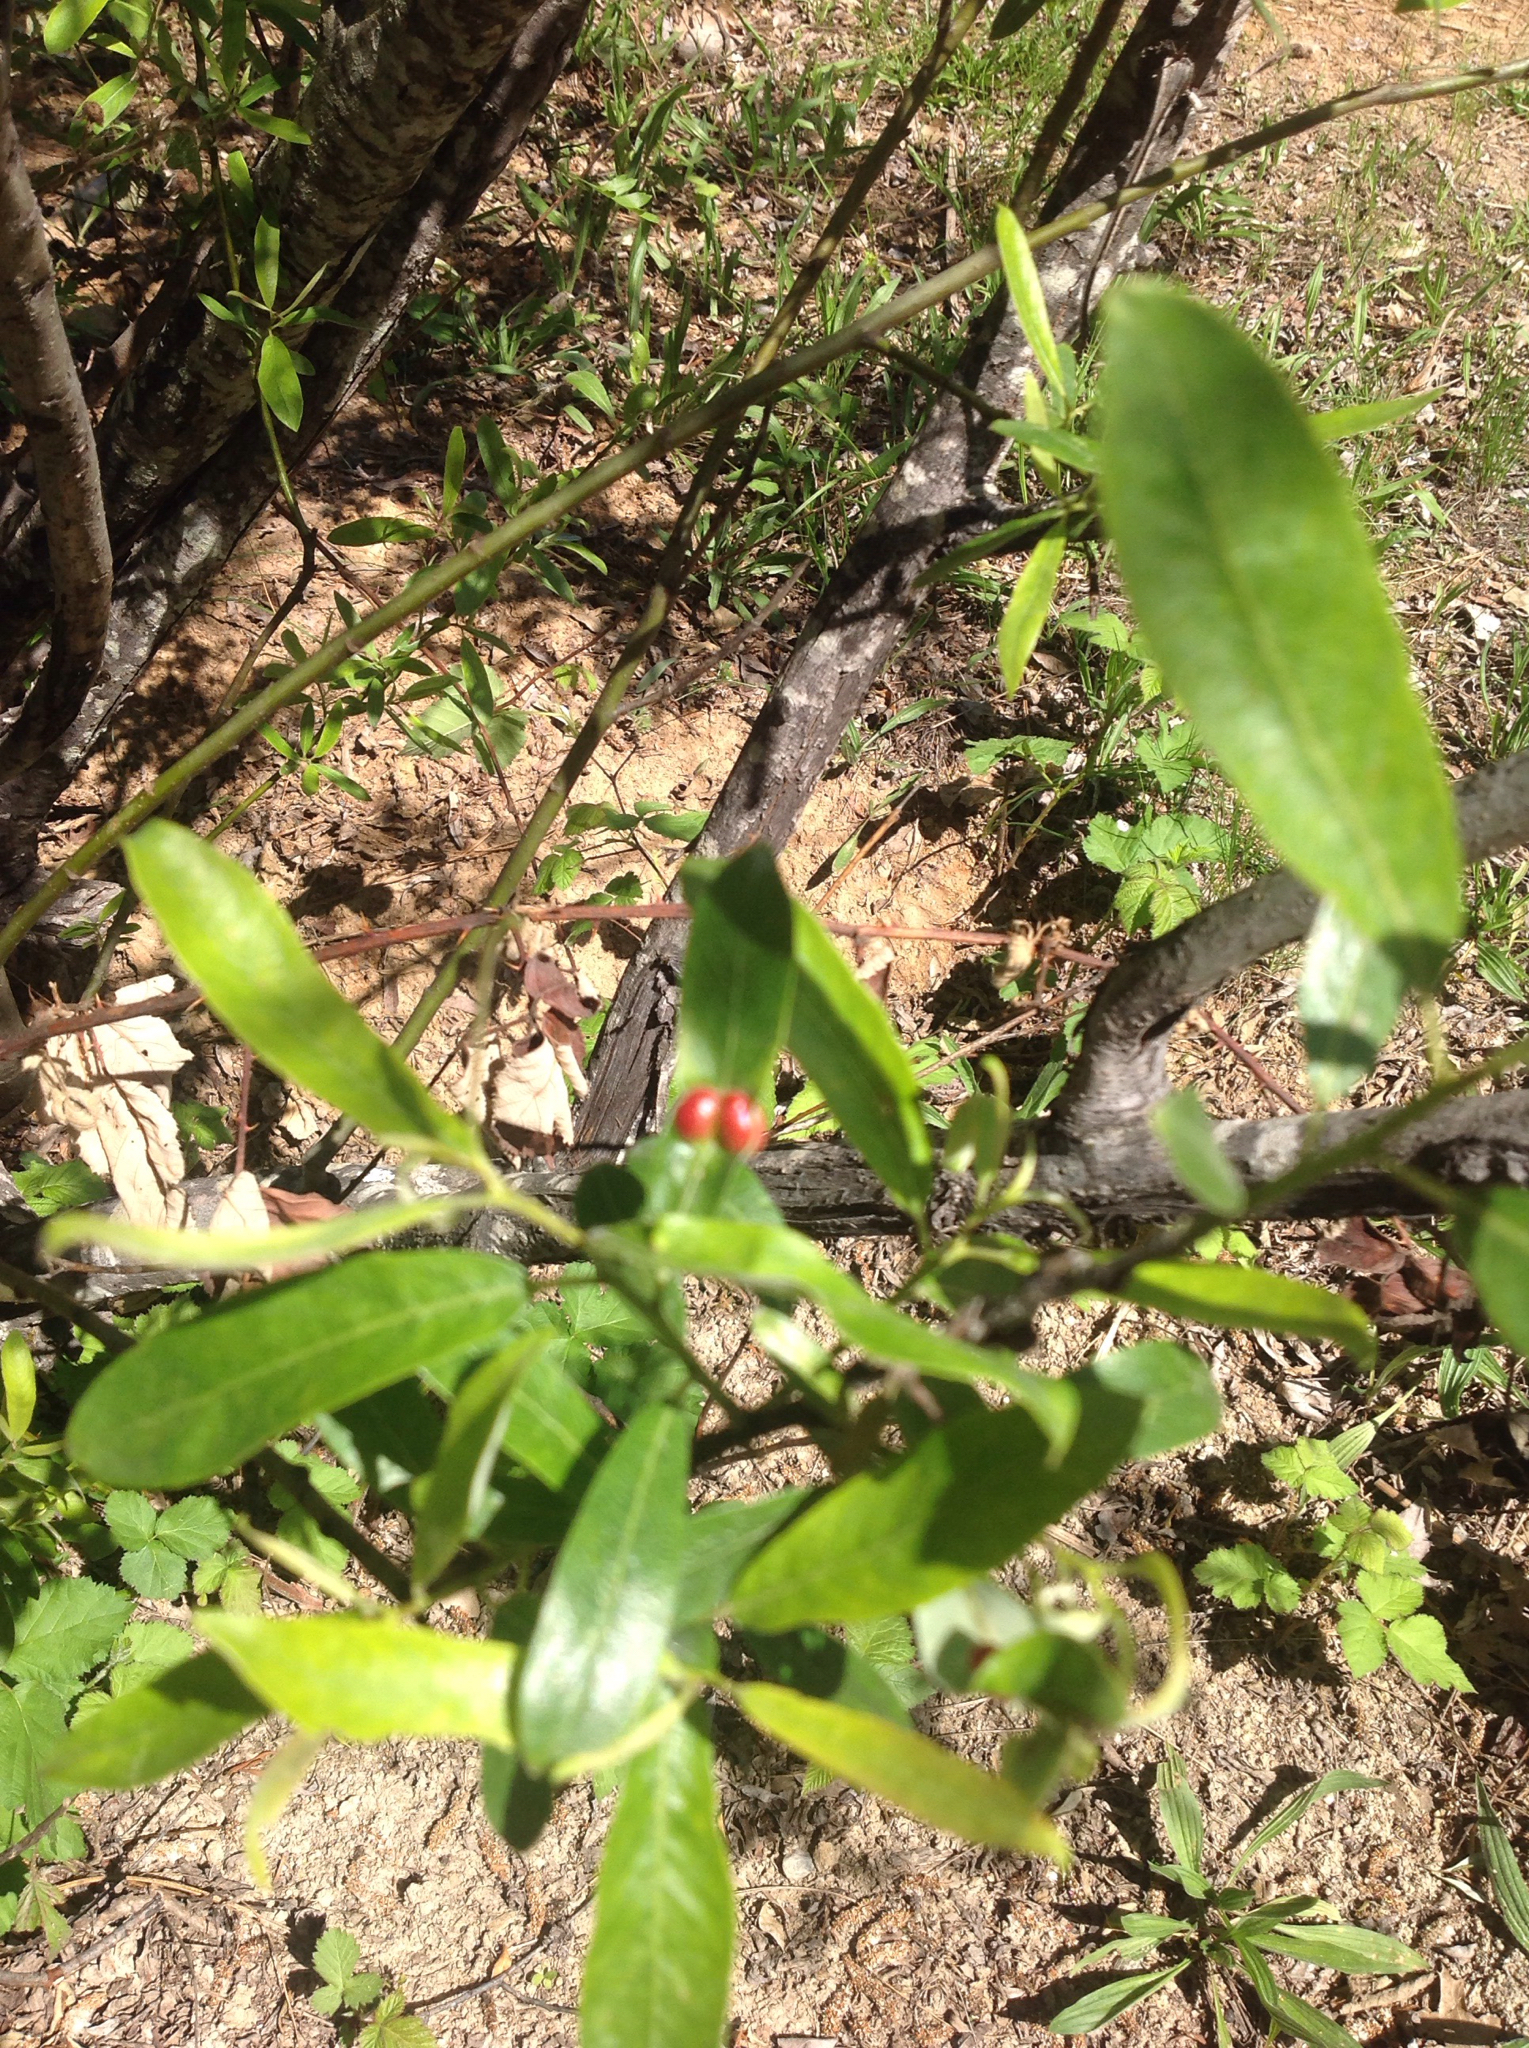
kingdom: Animalia
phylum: Arthropoda
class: Insecta
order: Hymenoptera
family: Tenthredinidae
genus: Euura
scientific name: Euura
